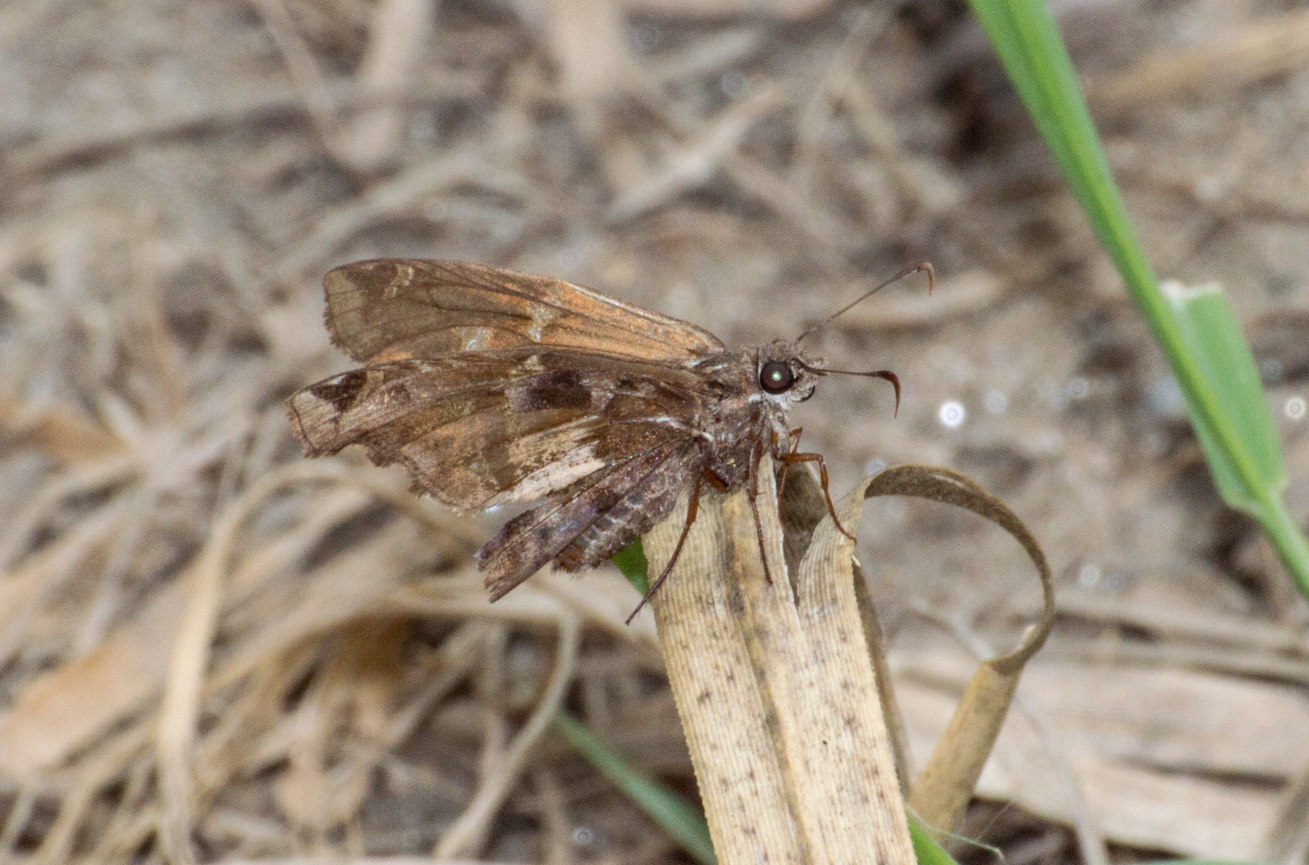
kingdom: Animalia
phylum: Arthropoda
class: Insecta
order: Lepidoptera
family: Hesperiidae
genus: Chioides
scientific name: Chioides catillus
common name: Silverbanded skipper
